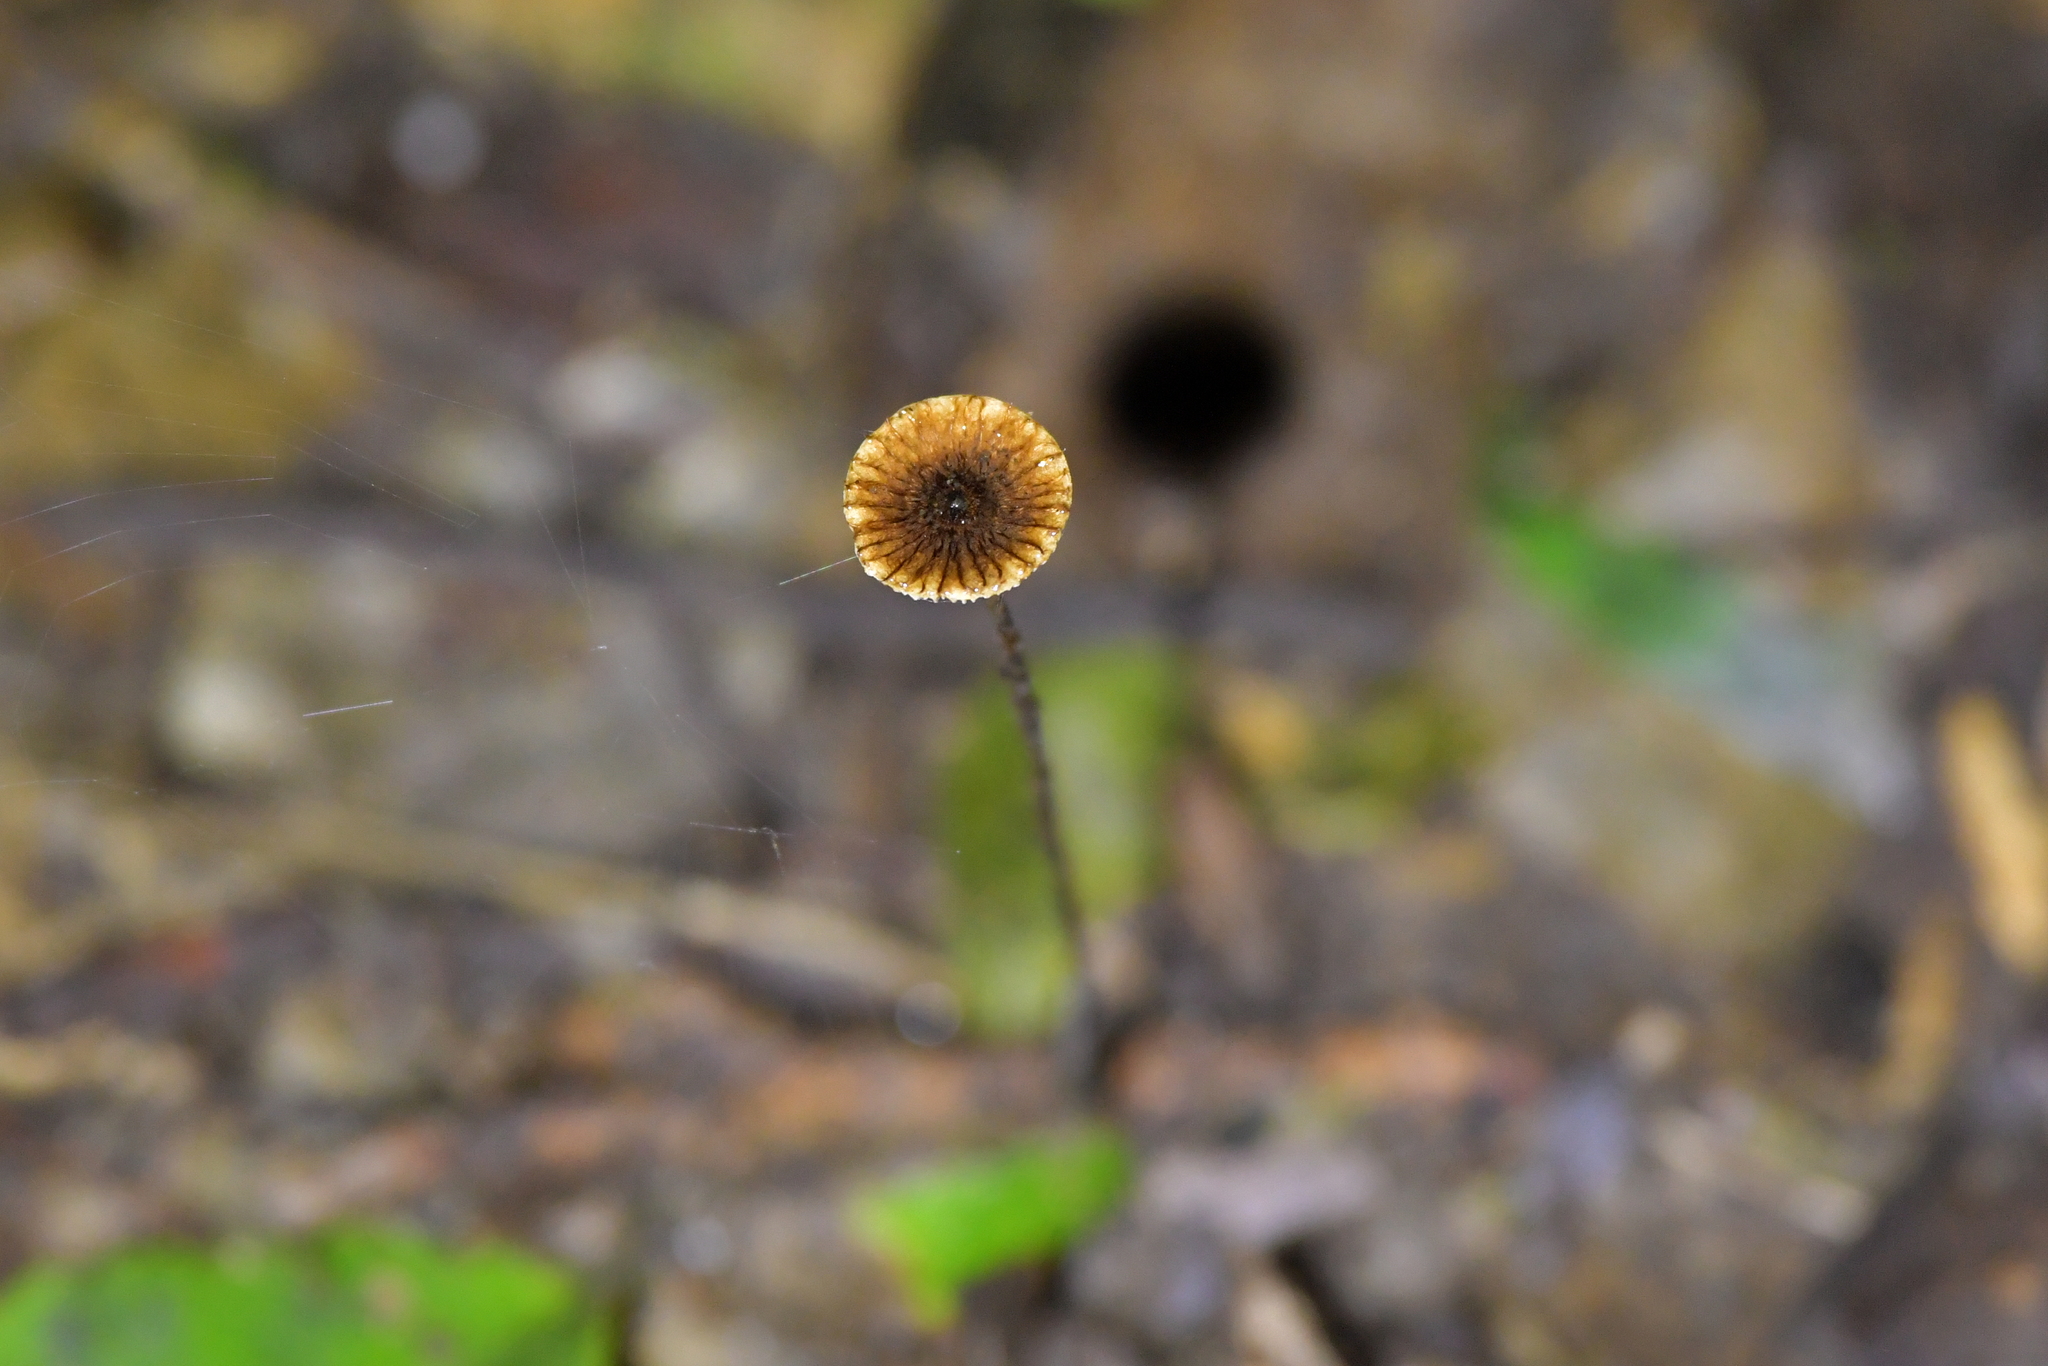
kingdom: Fungi
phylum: Basidiomycota
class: Agaricomycetes
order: Agaricales
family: Marasmiaceae
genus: Crinipellis
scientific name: Crinipellis procera
